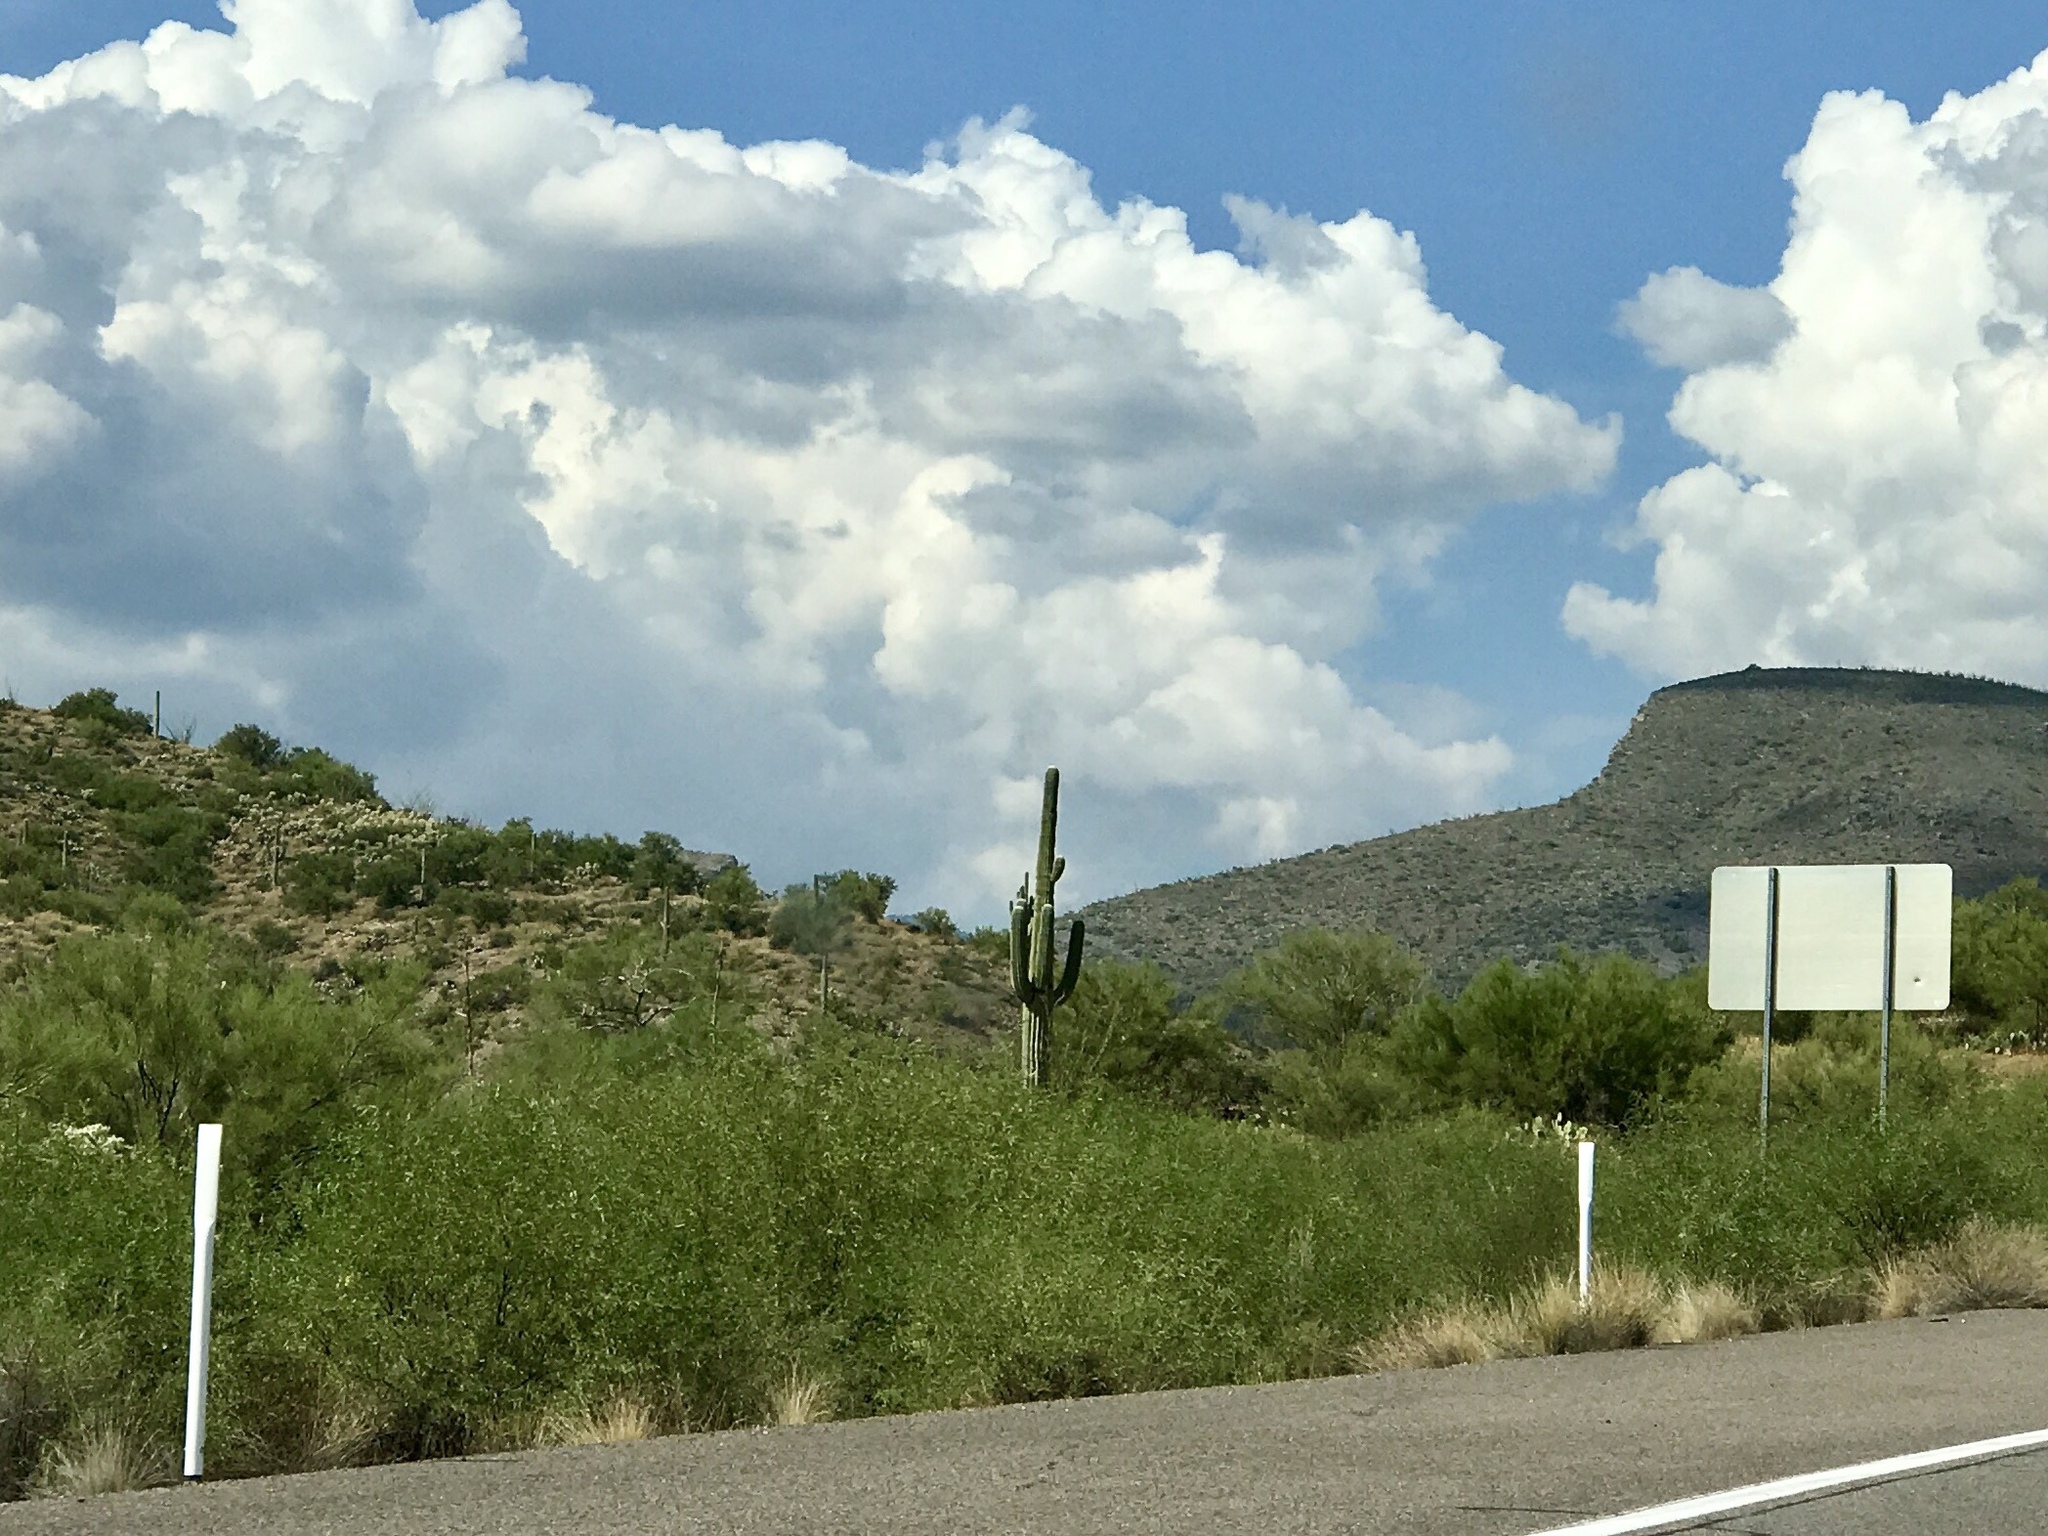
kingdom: Plantae
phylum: Tracheophyta
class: Magnoliopsida
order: Caryophyllales
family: Cactaceae
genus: Carnegiea
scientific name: Carnegiea gigantea
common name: Saguaro
